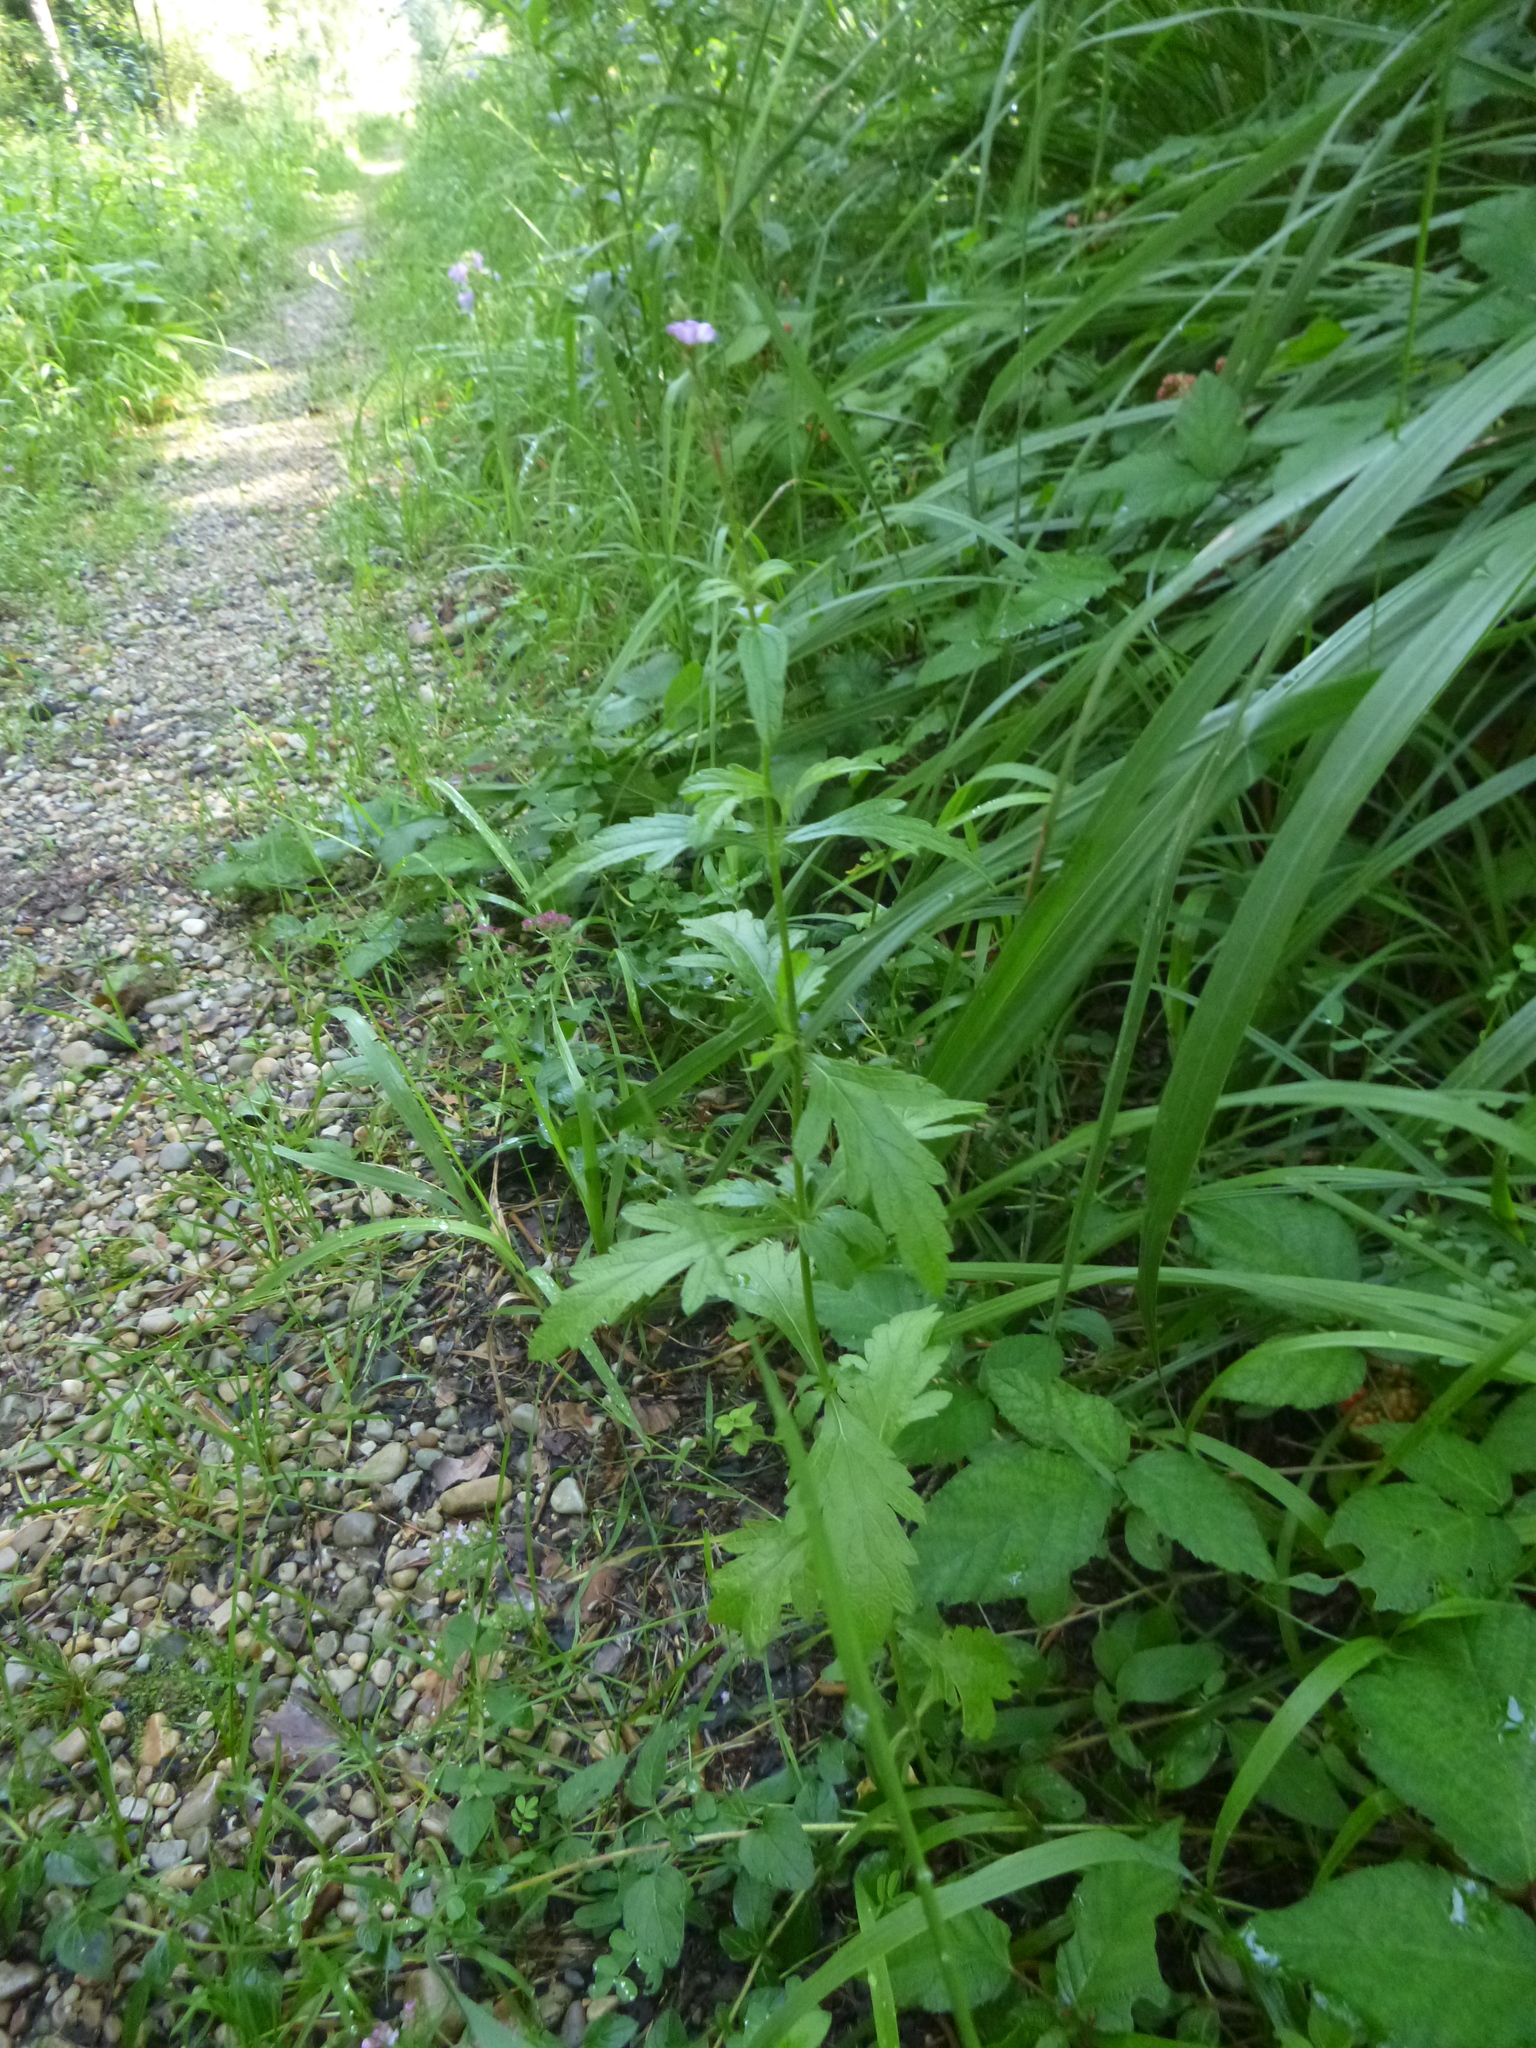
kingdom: Plantae
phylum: Tracheophyta
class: Magnoliopsida
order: Lamiales
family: Verbenaceae
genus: Verbena
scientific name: Verbena officinalis
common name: Vervain
